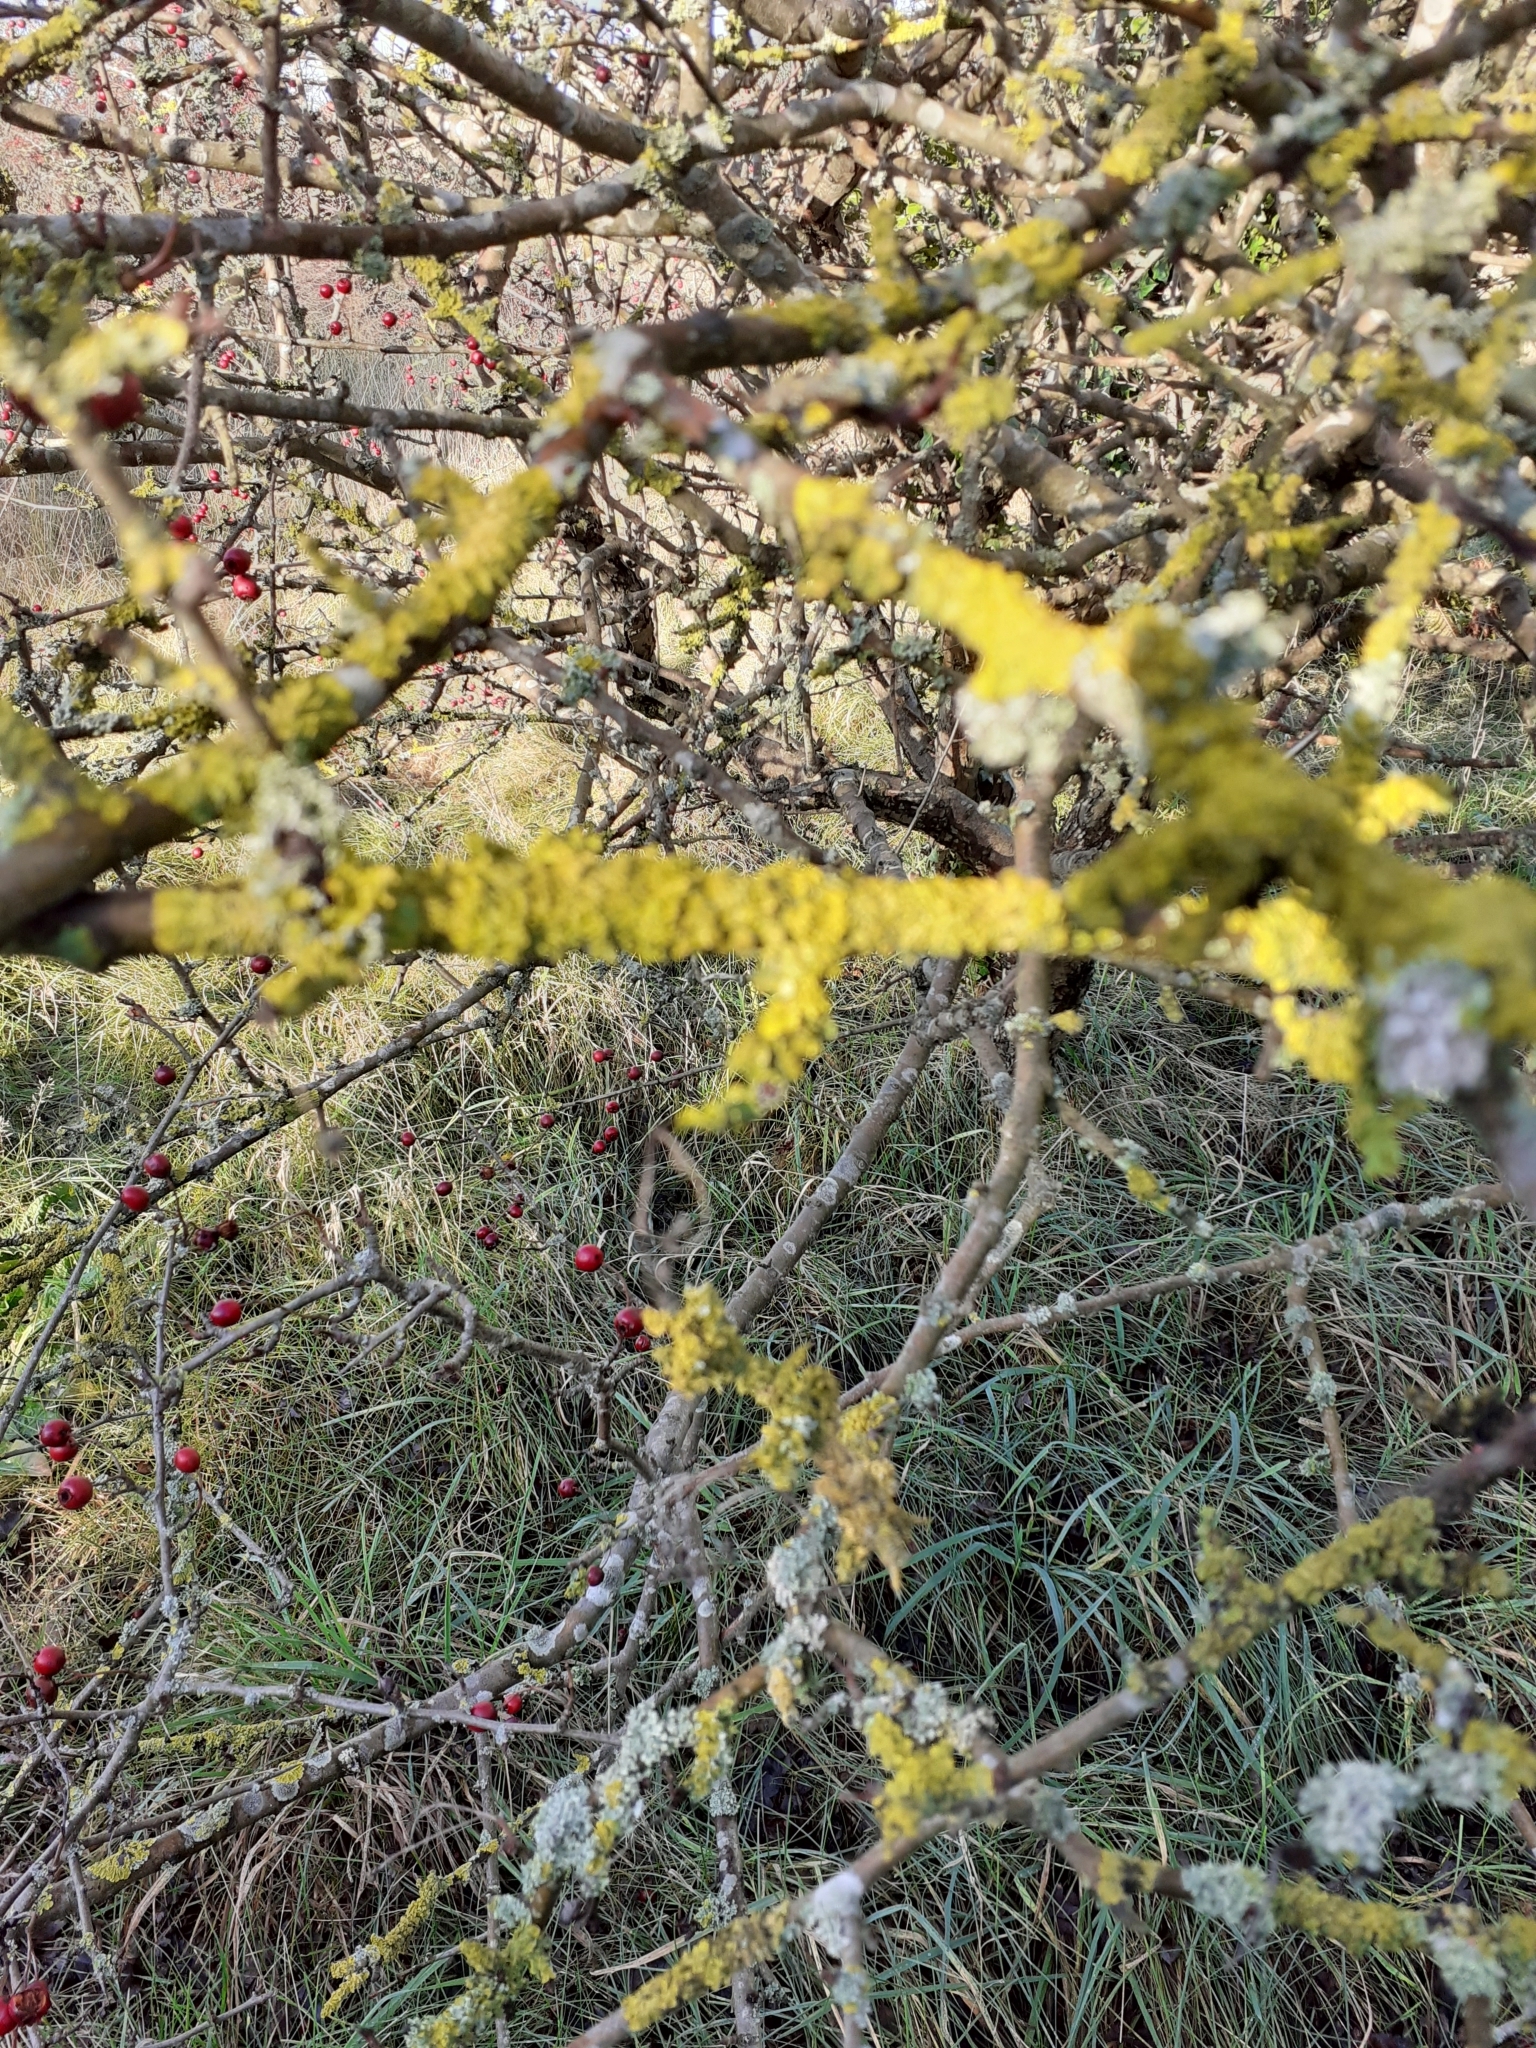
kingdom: Fungi
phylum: Ascomycota
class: Lecanoromycetes
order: Teloschistales
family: Teloschistaceae
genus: Xanthoria
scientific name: Xanthoria parietina
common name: Common orange lichen
